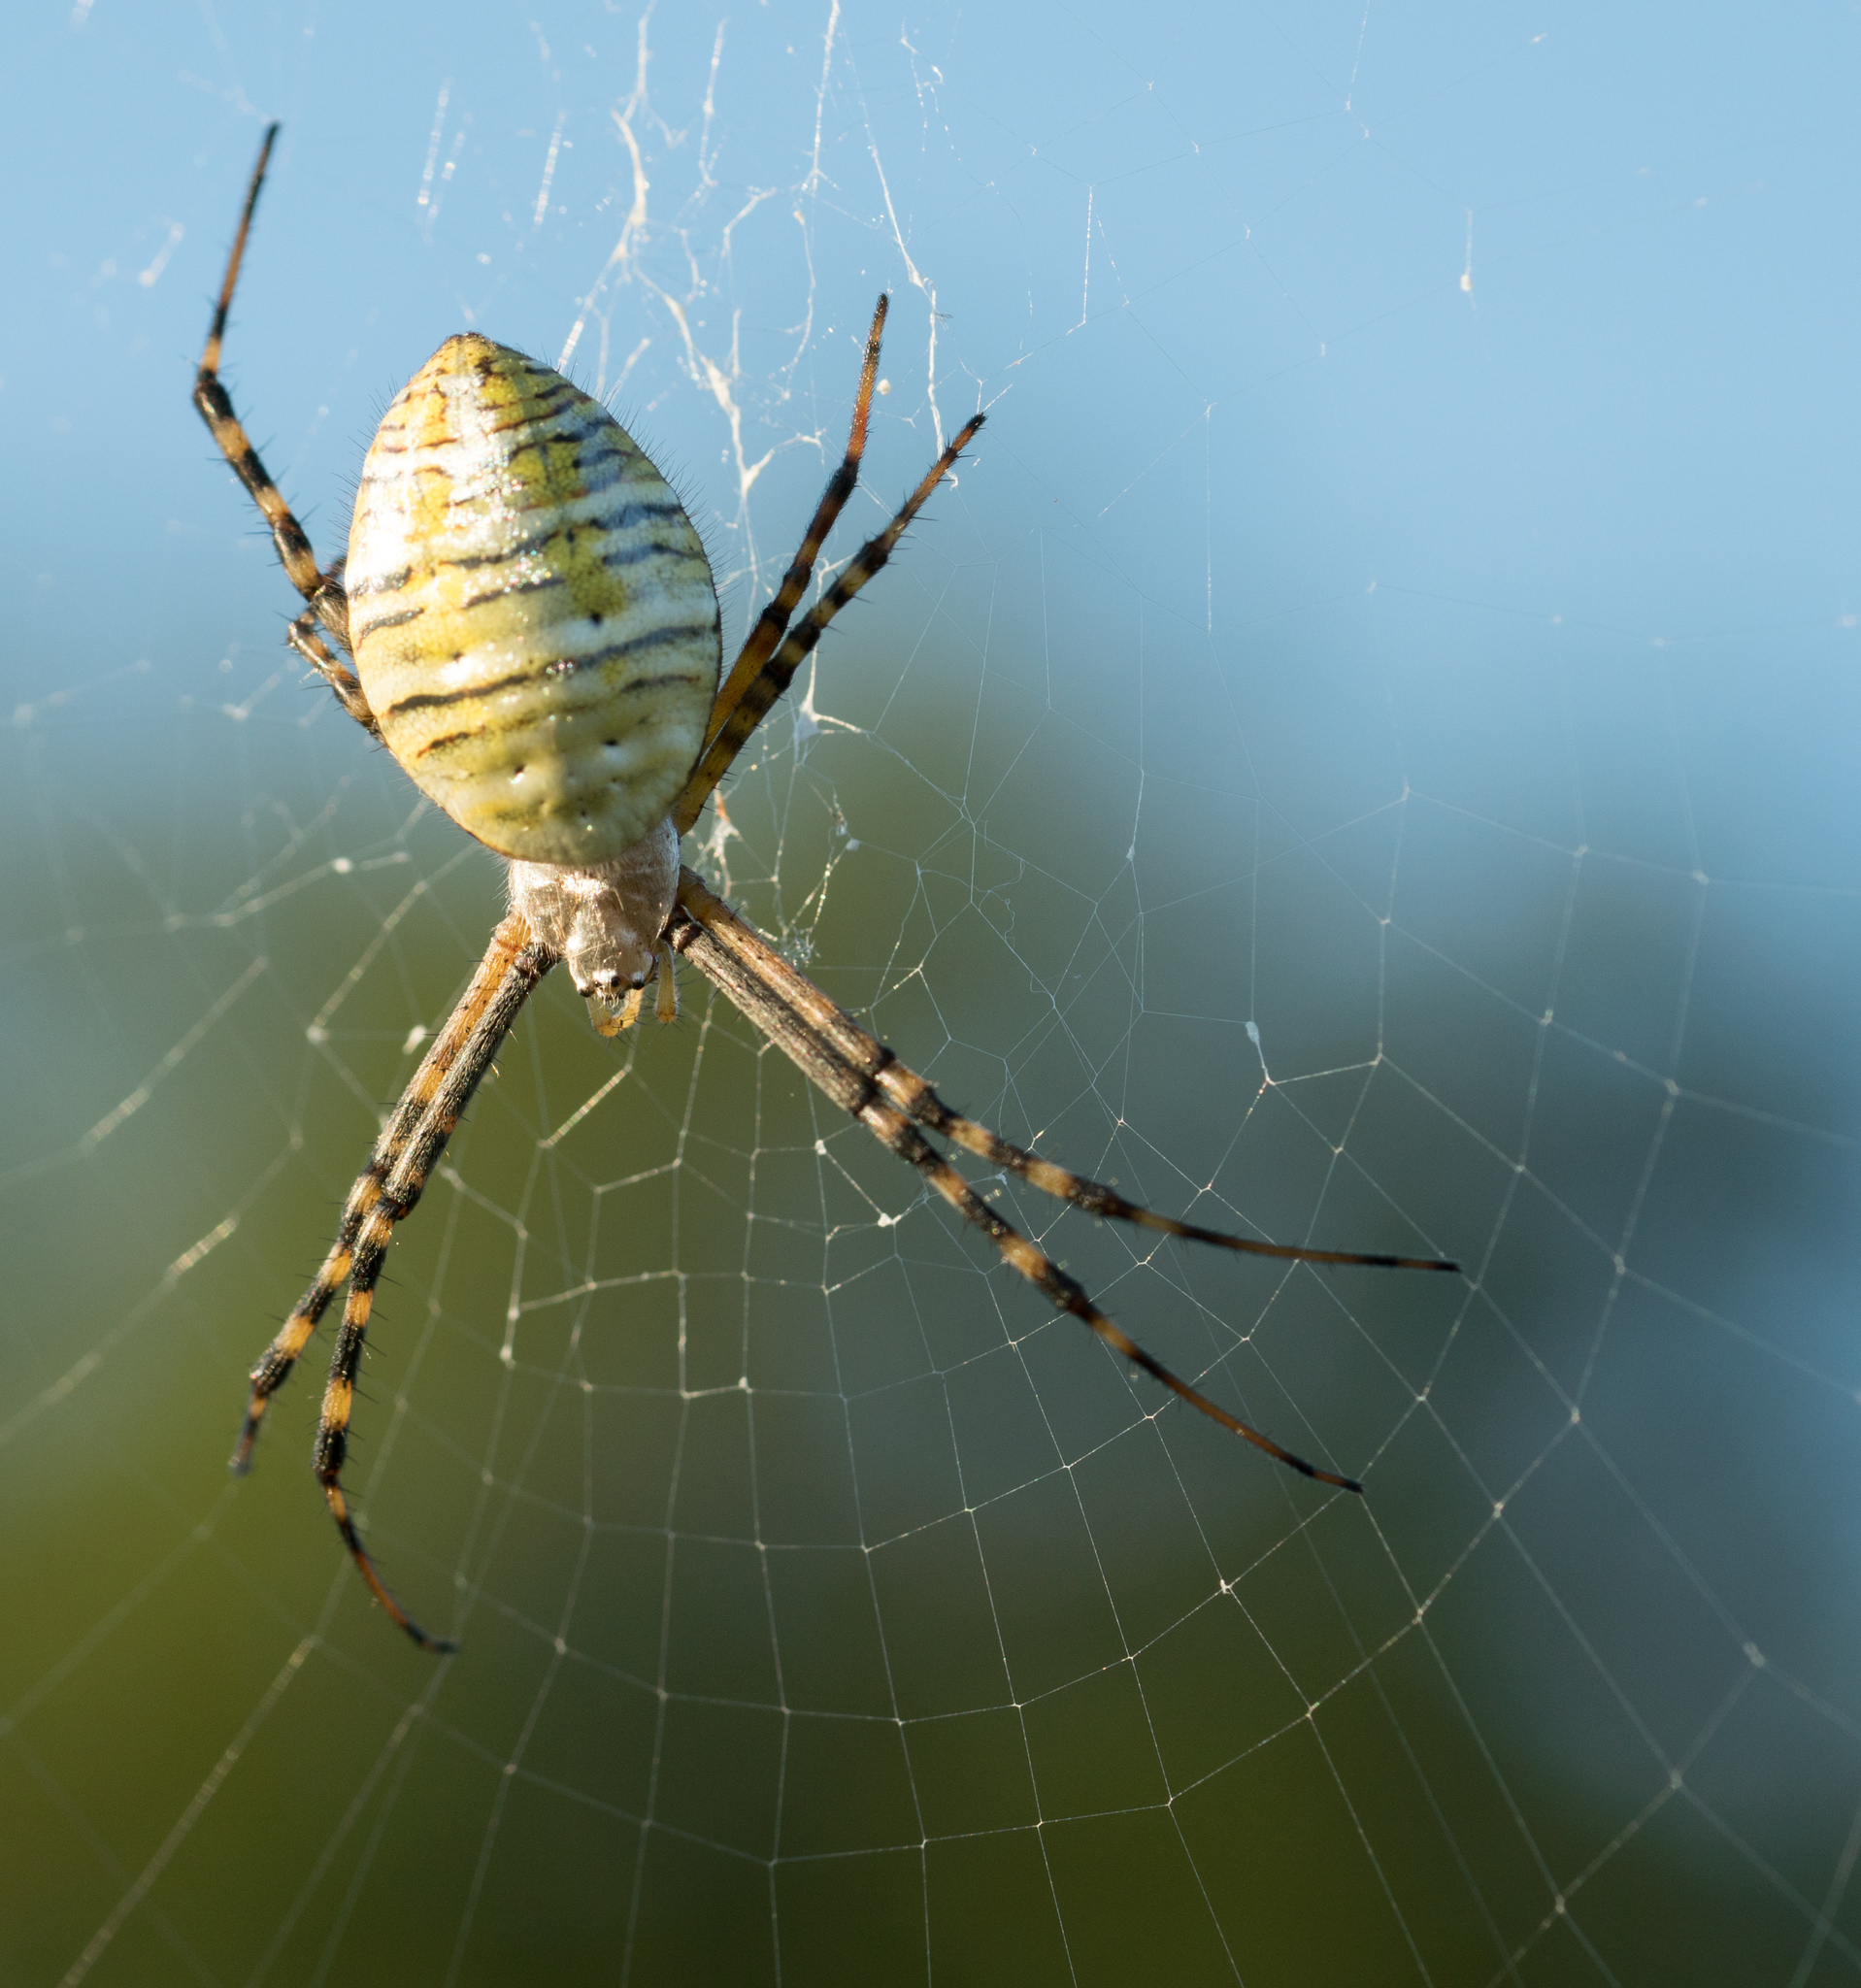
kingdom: Animalia
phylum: Arthropoda
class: Arachnida
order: Araneae
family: Araneidae
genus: Argiope
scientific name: Argiope trifasciata
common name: Banded garden spider
